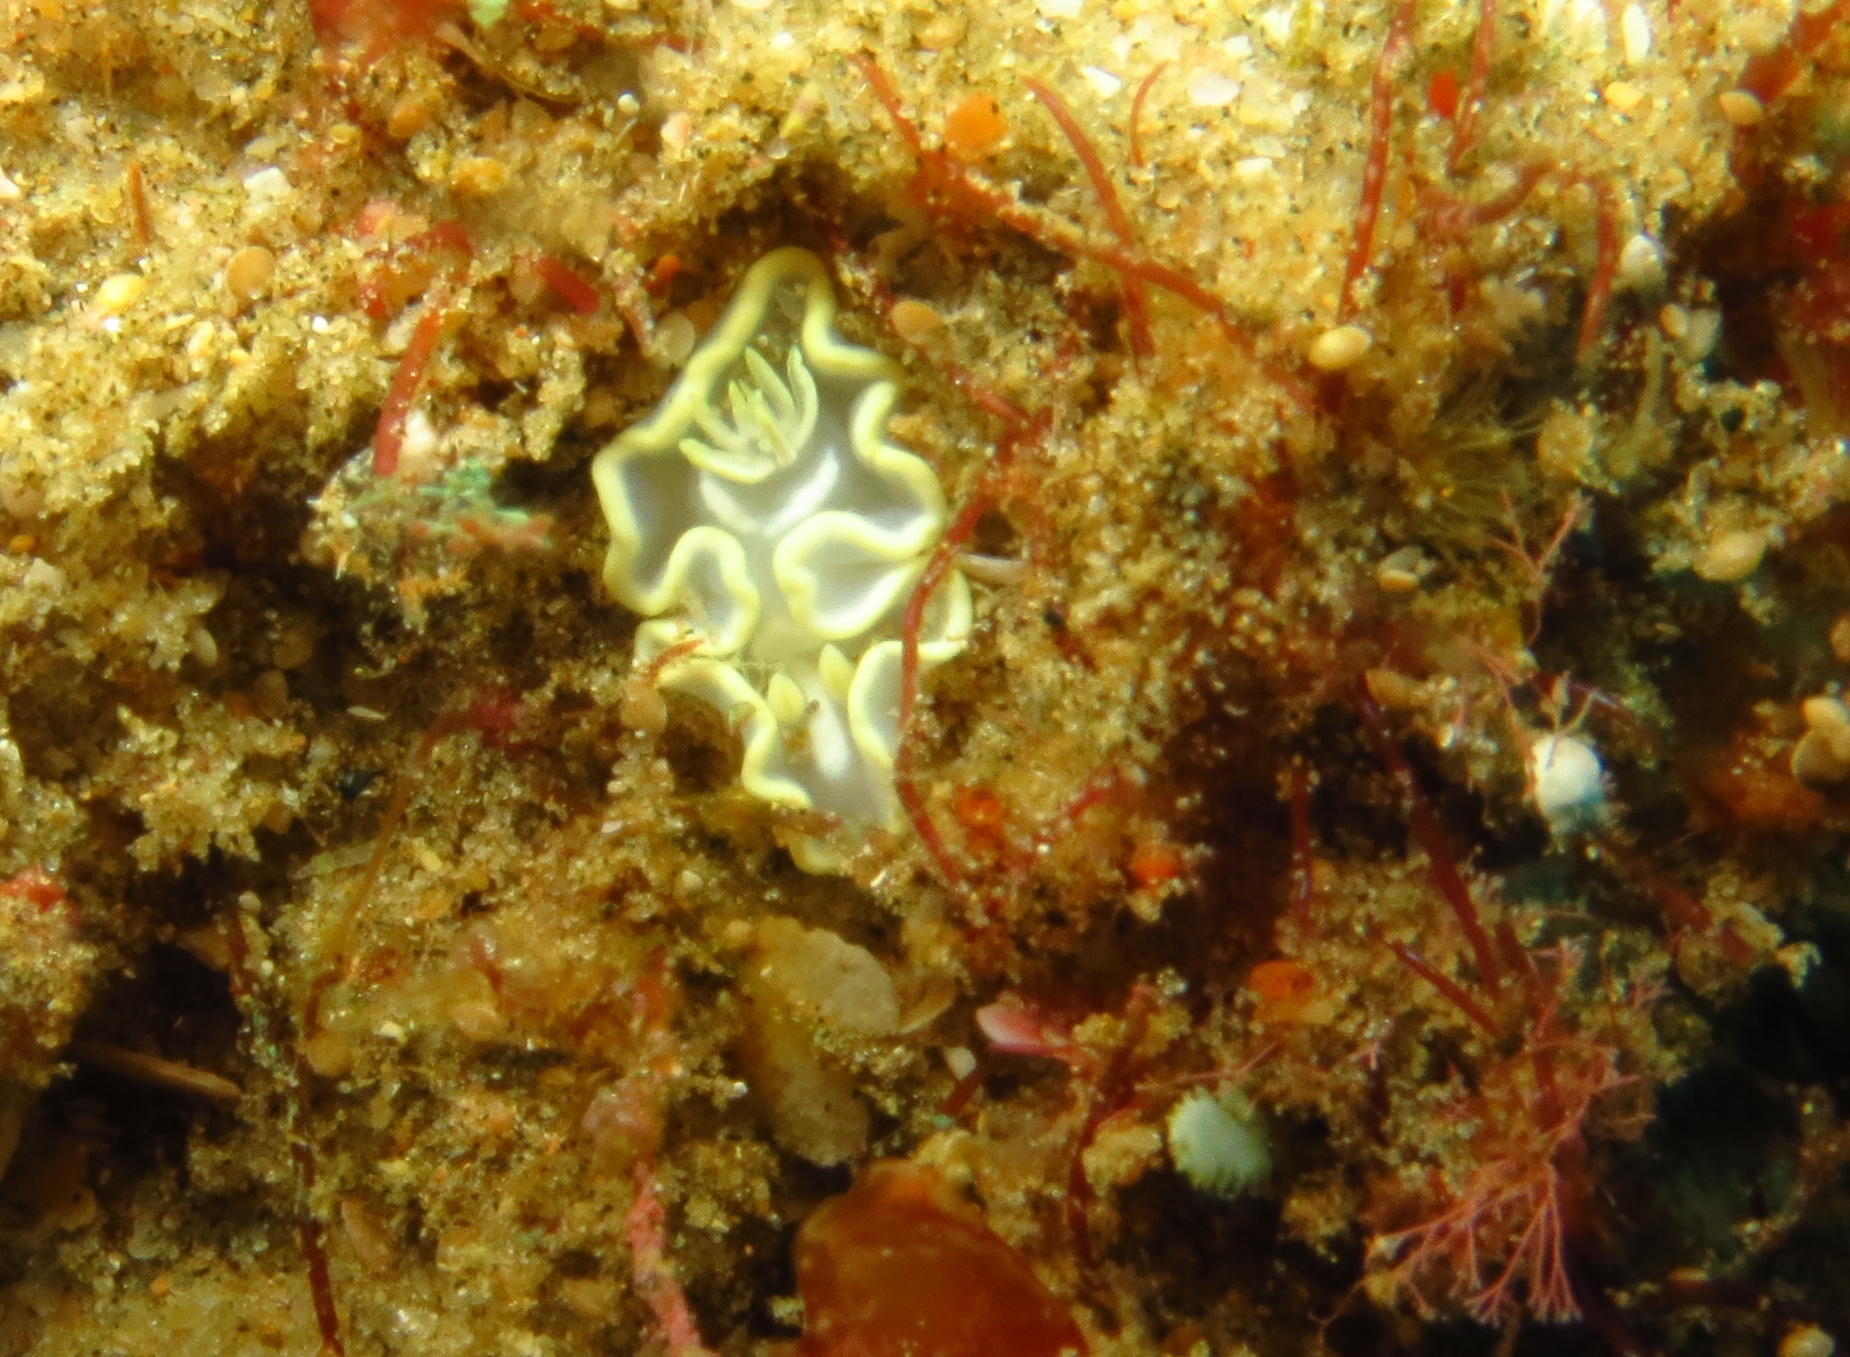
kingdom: Animalia
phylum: Mollusca
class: Gastropoda
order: Nudibranchia
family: Chromodorididae
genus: Glossodoris
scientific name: Glossodoris pallida
